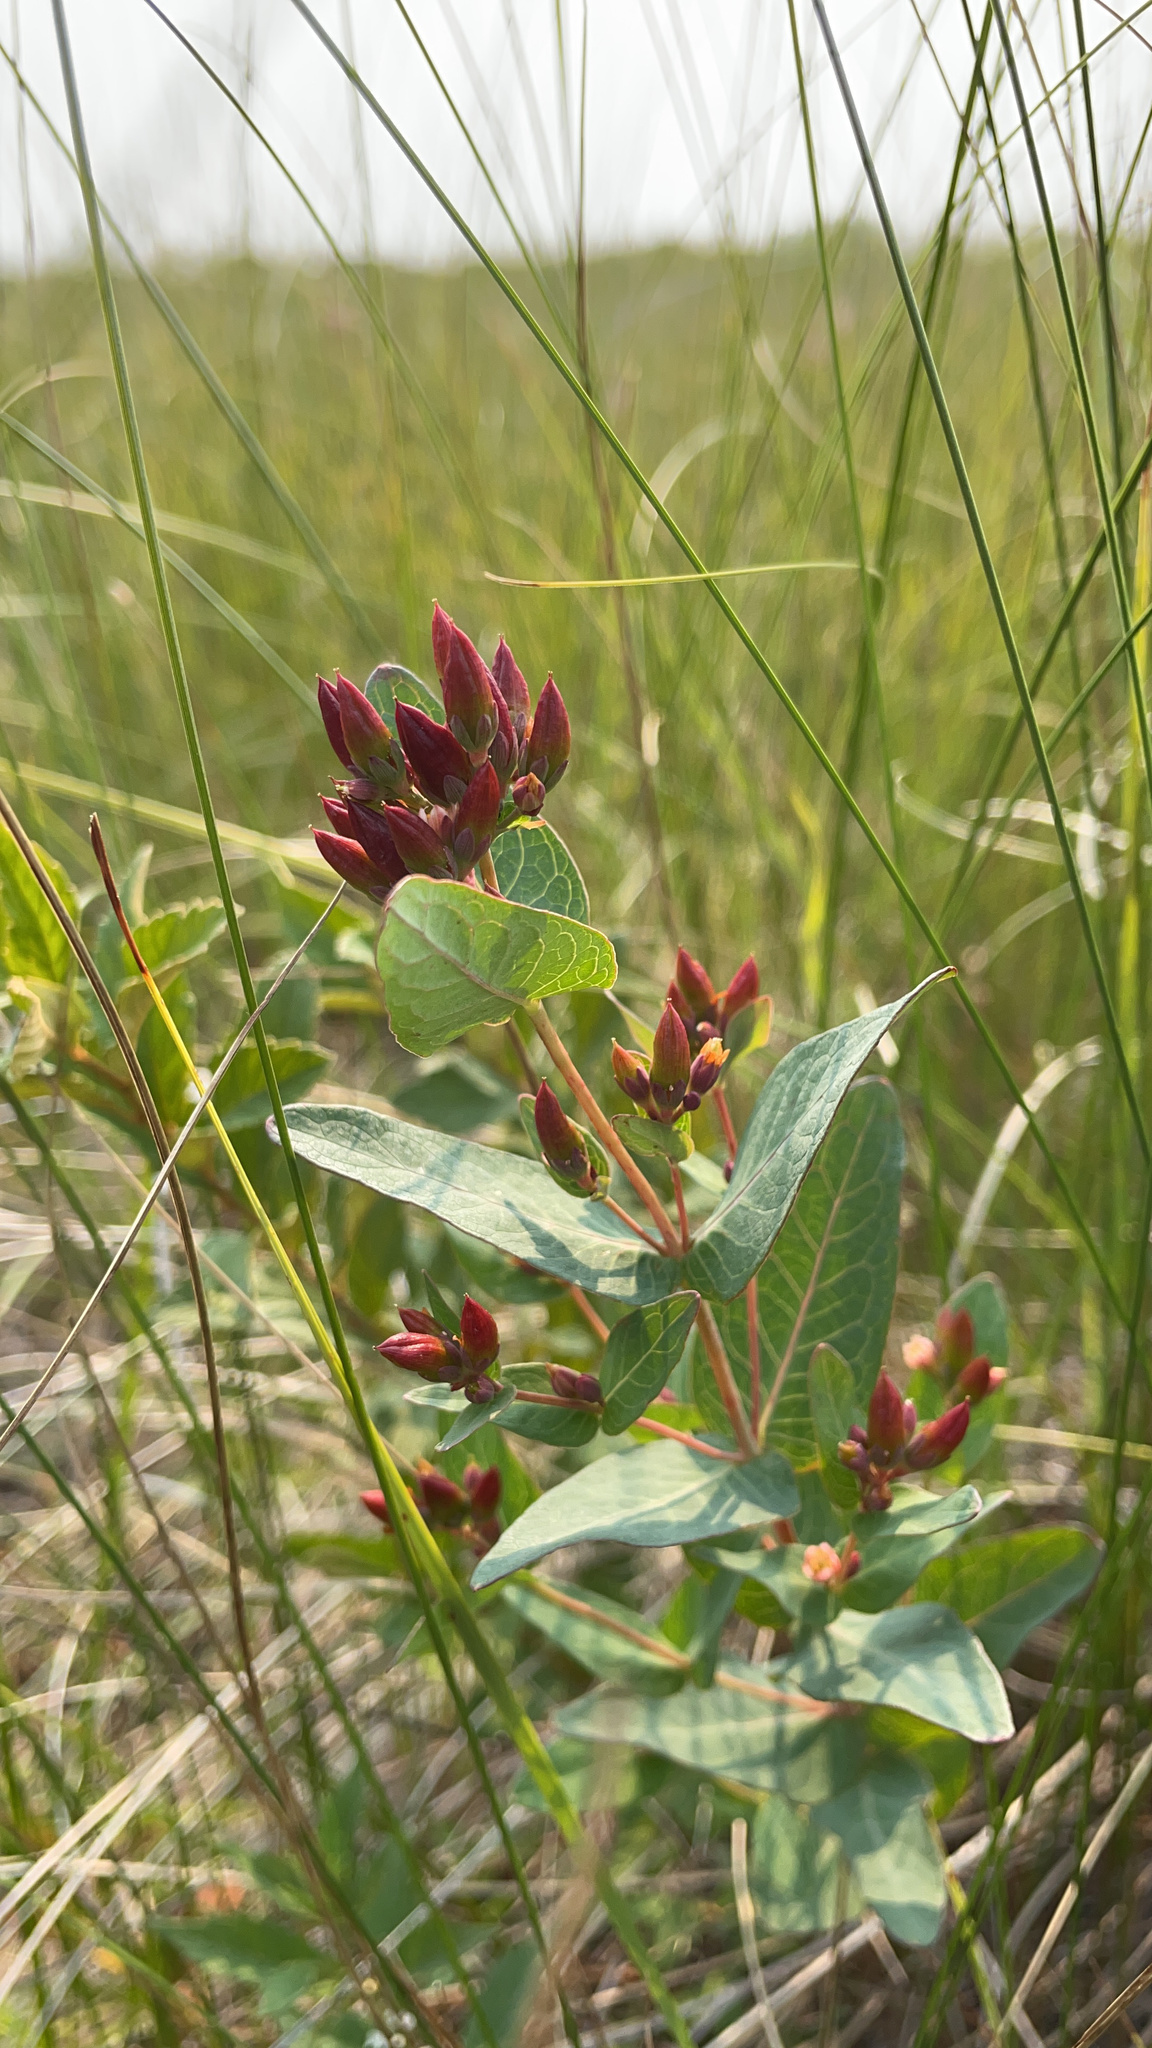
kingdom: Plantae
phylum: Tracheophyta
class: Magnoliopsida
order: Malpighiales
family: Hypericaceae
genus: Triadenum
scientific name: Triadenum fraseri
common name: Fraser's marsh st. johnswort
